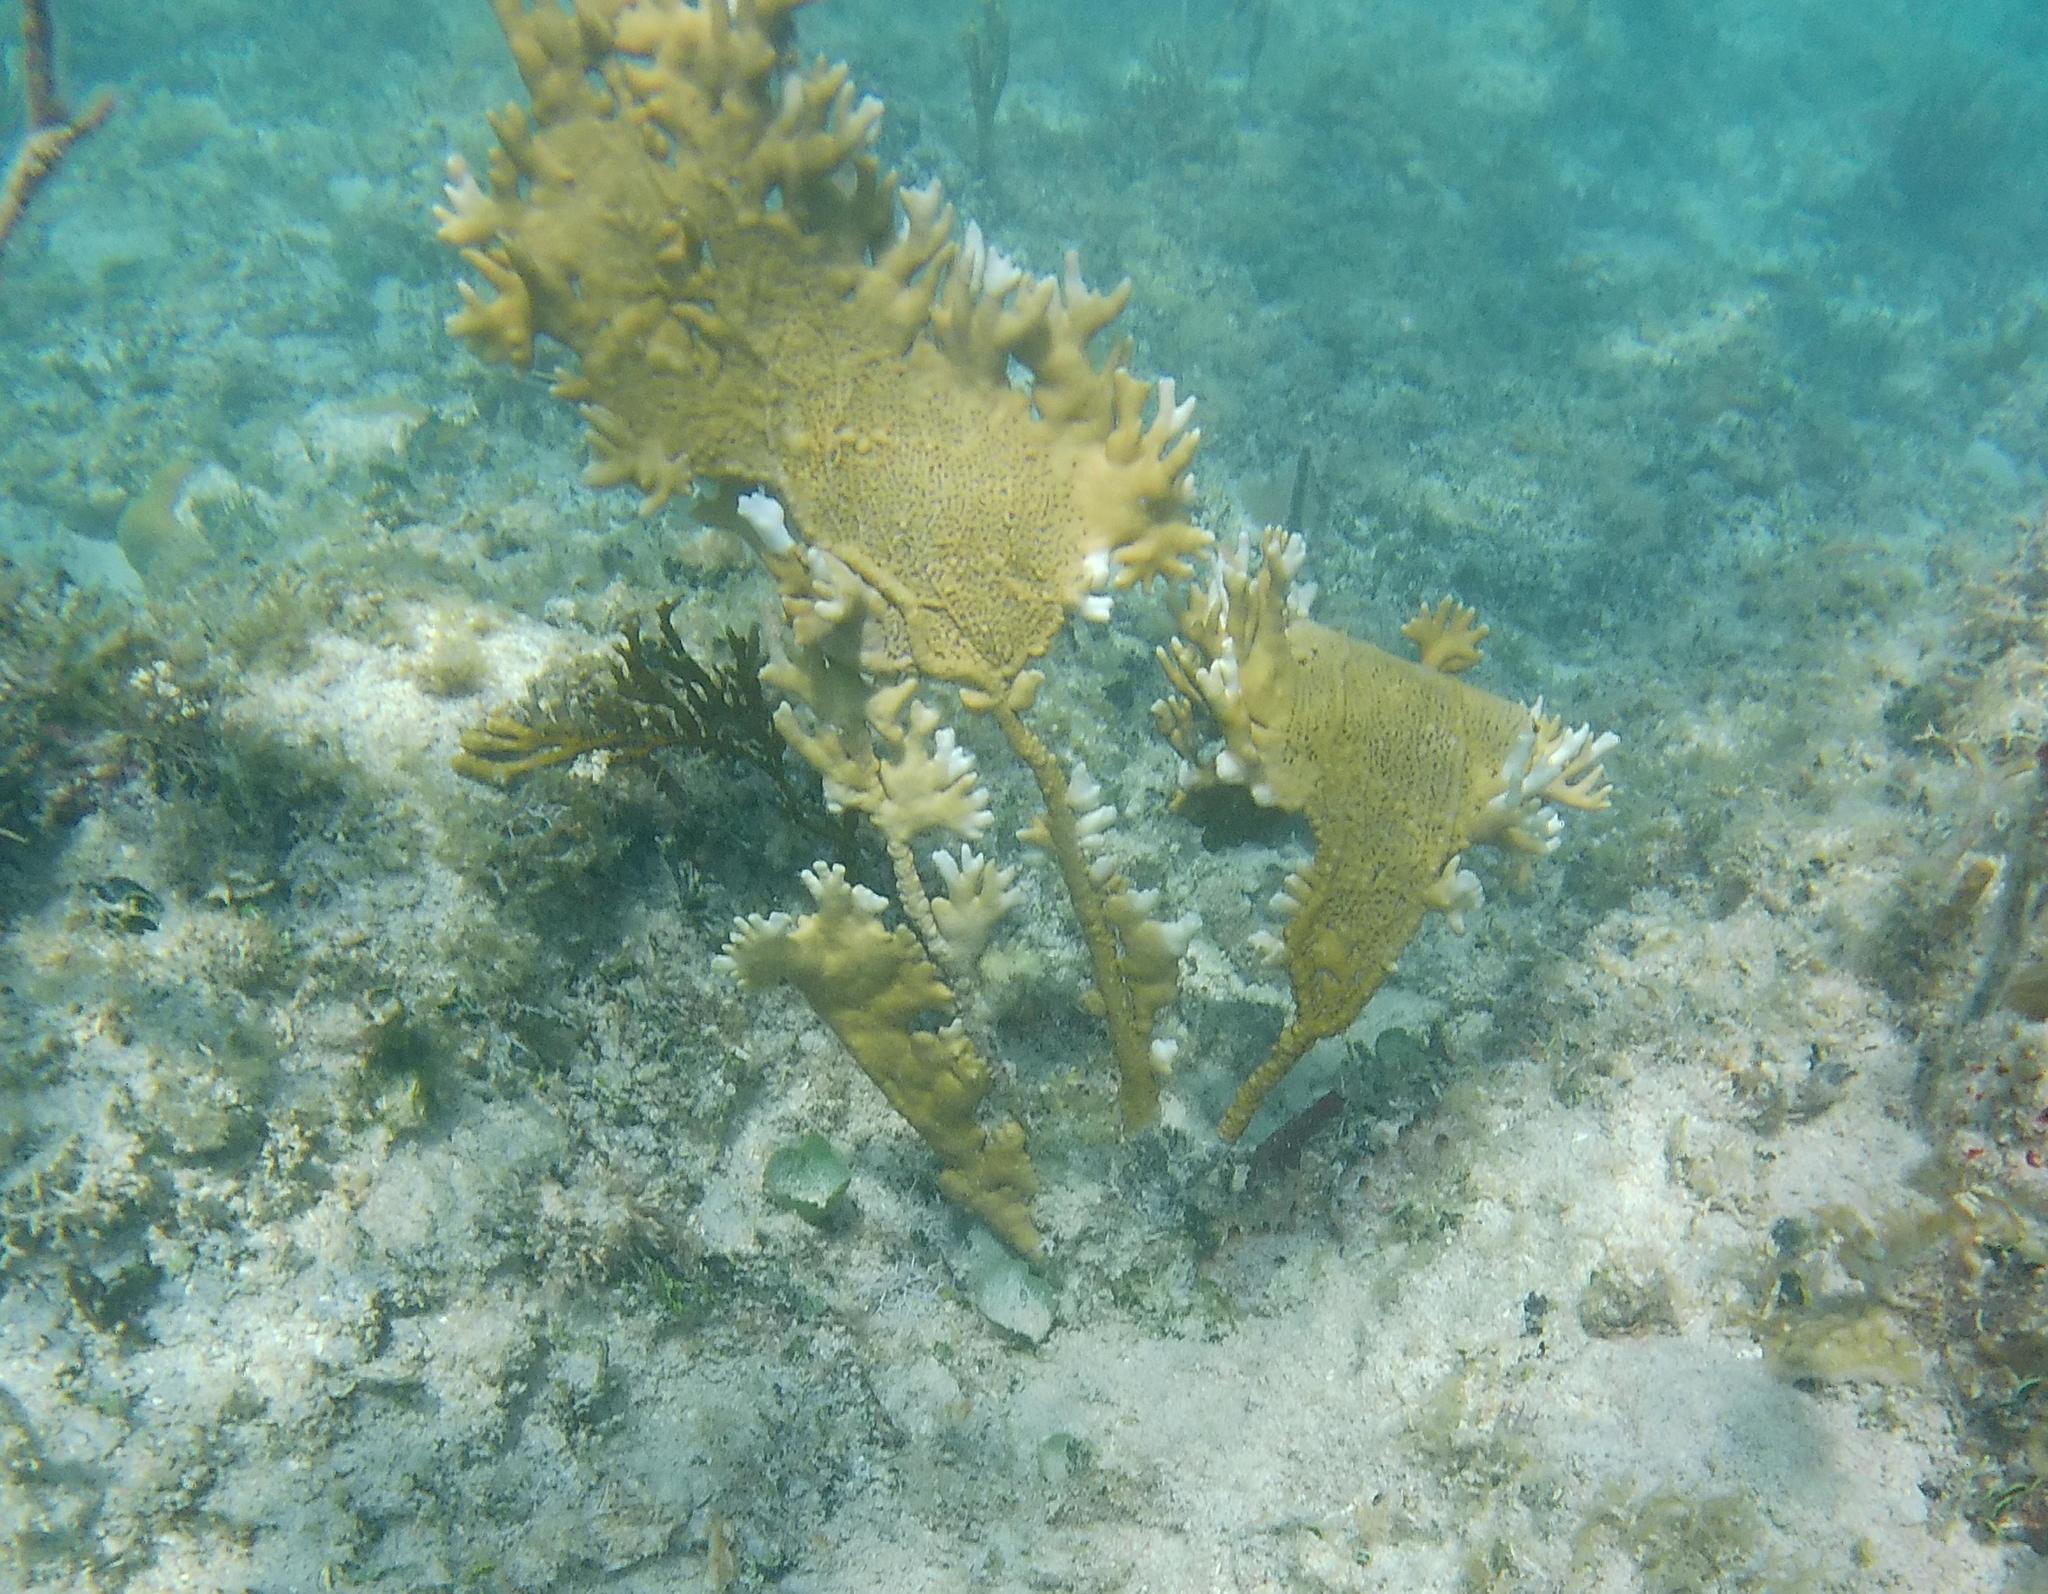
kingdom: Animalia
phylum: Cnidaria
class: Hydrozoa
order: Anthoathecata
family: Milleporidae
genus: Millepora
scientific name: Millepora alcicornis
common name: Branching fire coral
